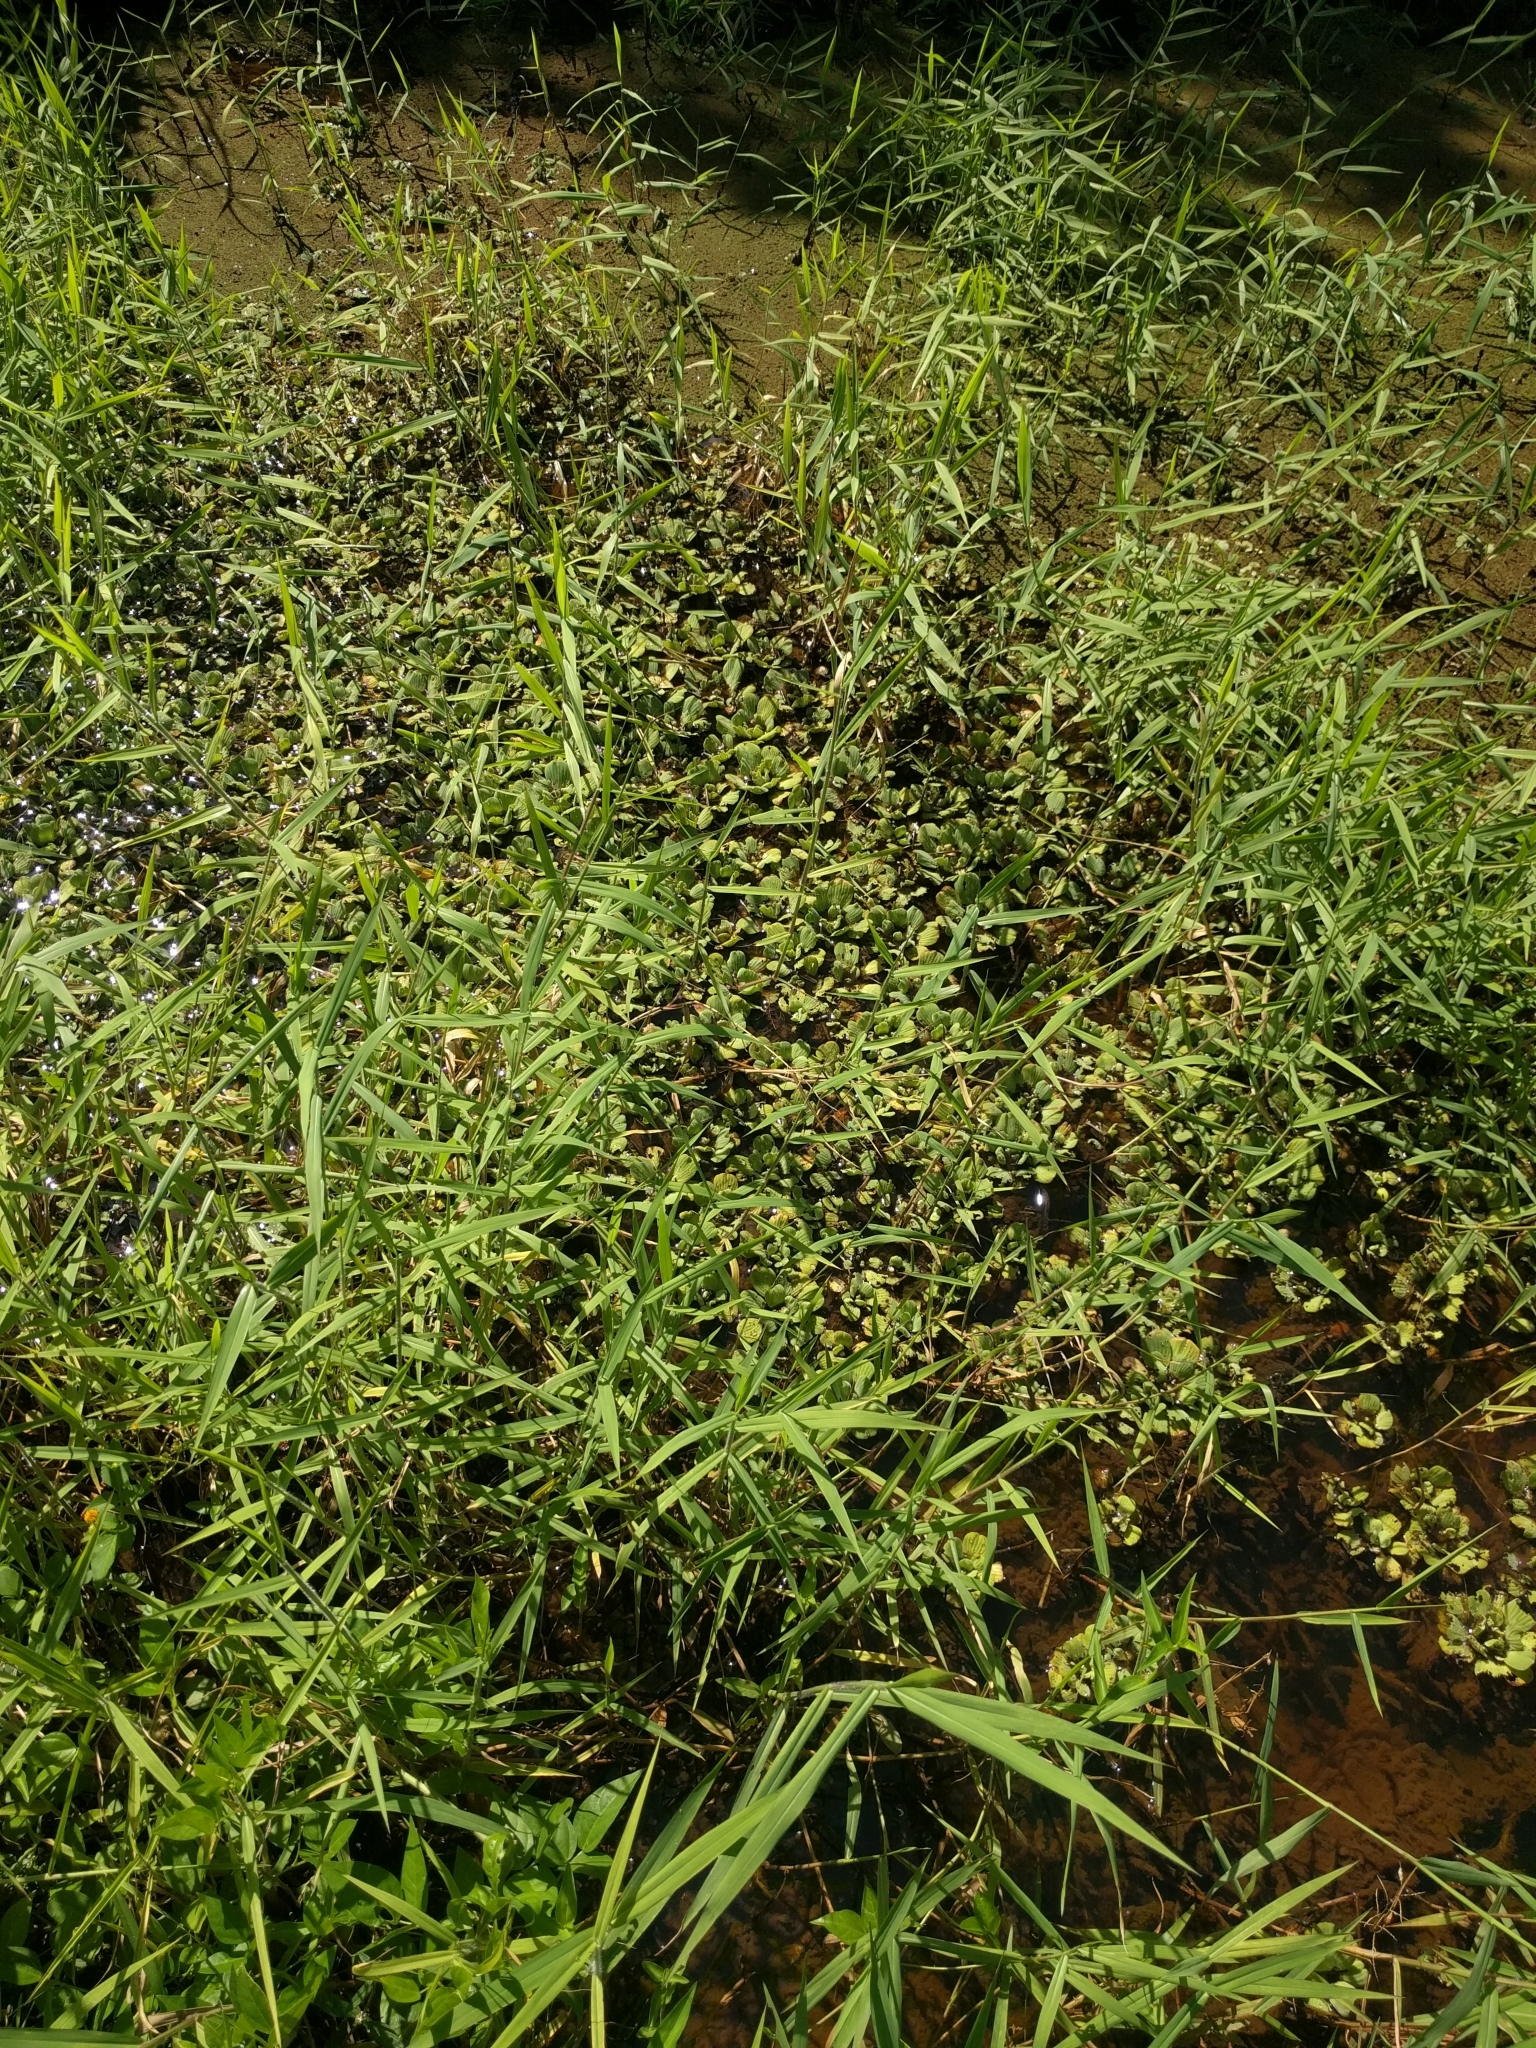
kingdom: Plantae
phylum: Tracheophyta
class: Liliopsida
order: Alismatales
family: Araceae
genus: Pistia
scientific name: Pistia stratiotes
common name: Water lettuce
